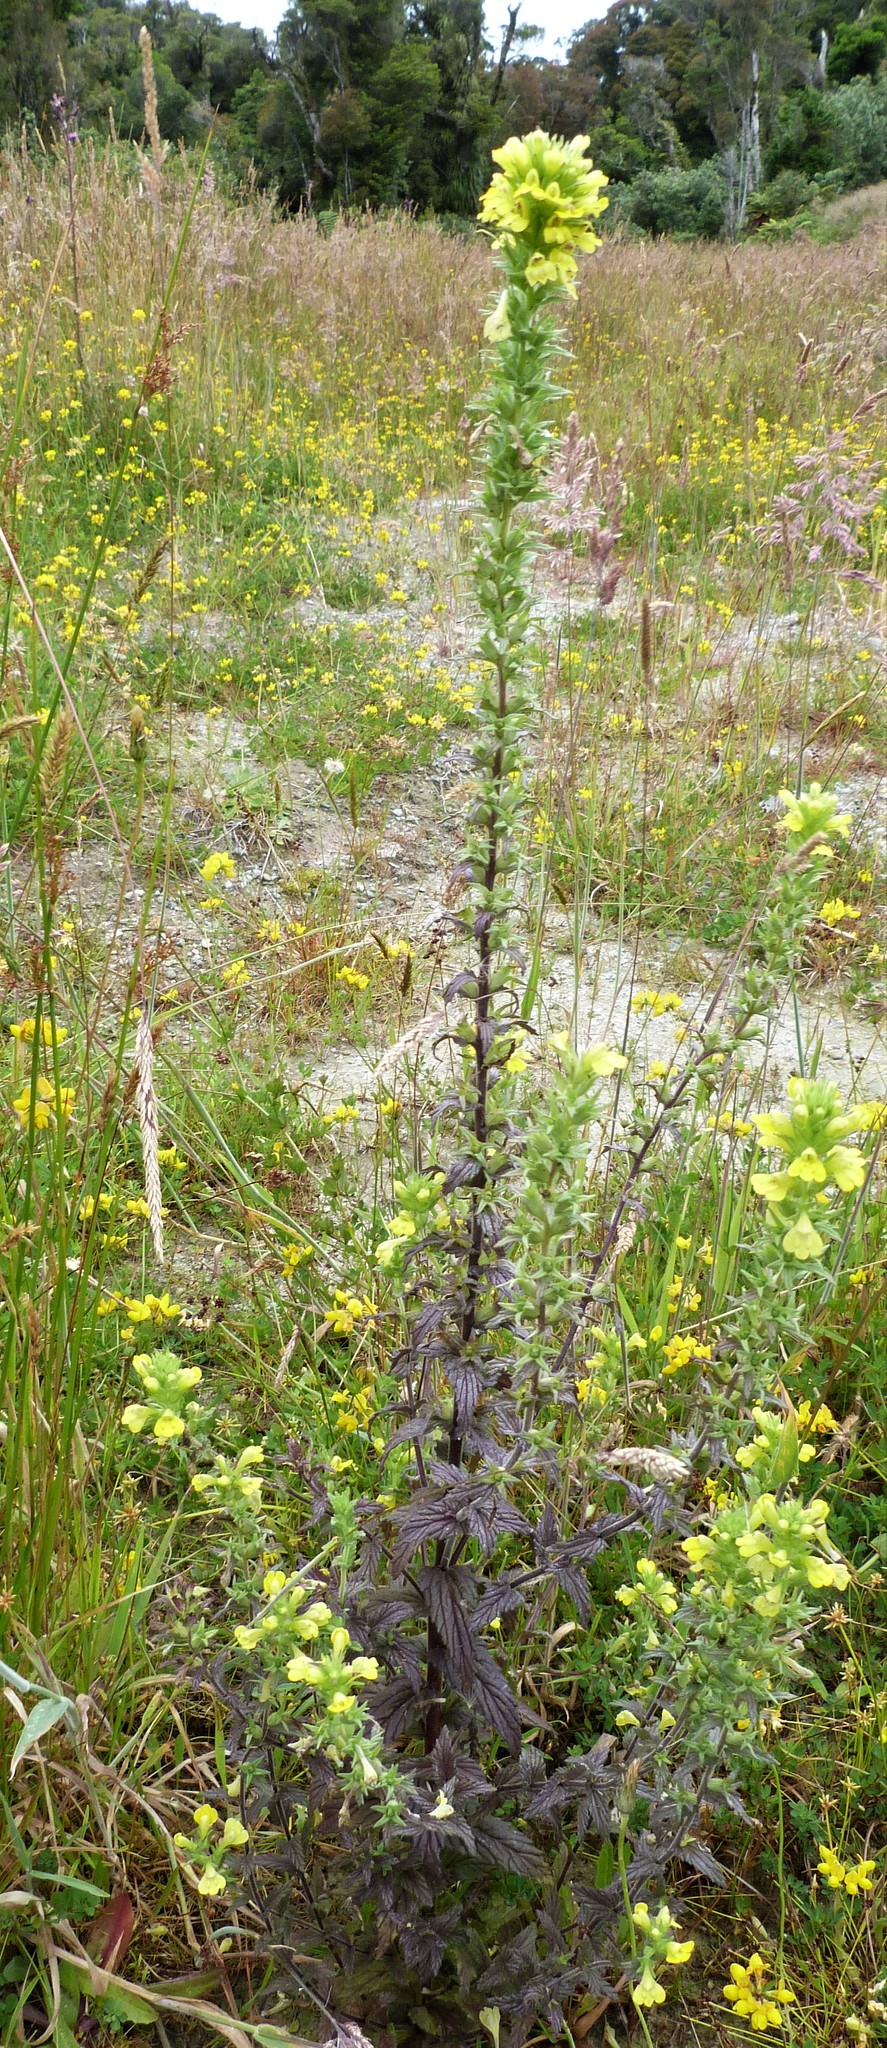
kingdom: Plantae
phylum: Tracheophyta
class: Magnoliopsida
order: Lamiales
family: Orobanchaceae
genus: Bellardia
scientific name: Bellardia viscosa
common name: Sticky parentucellia
